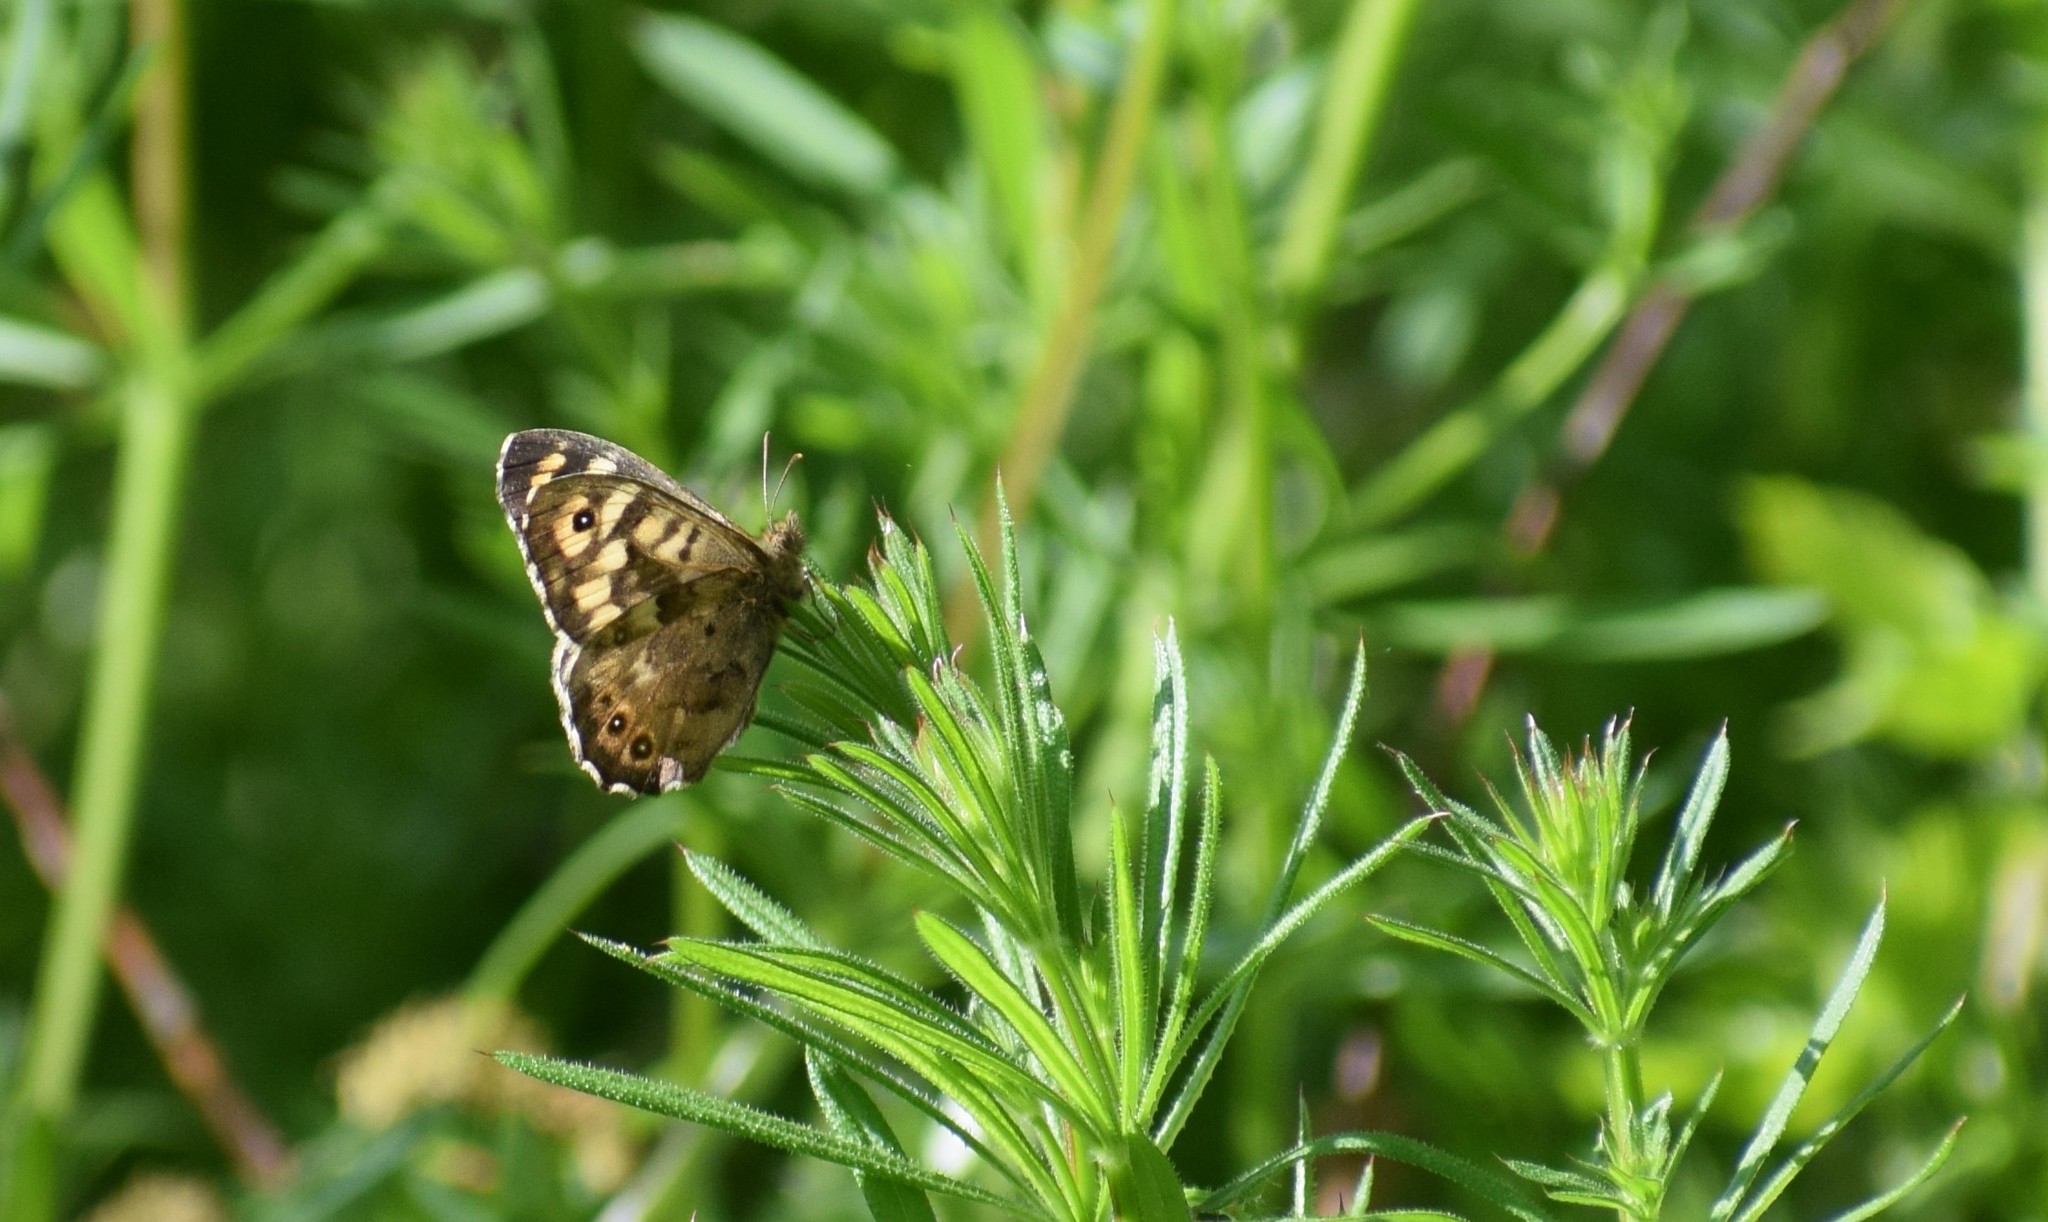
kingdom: Animalia
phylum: Arthropoda
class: Insecta
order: Lepidoptera
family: Nymphalidae
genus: Pararge
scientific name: Pararge aegeria
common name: Speckled wood
